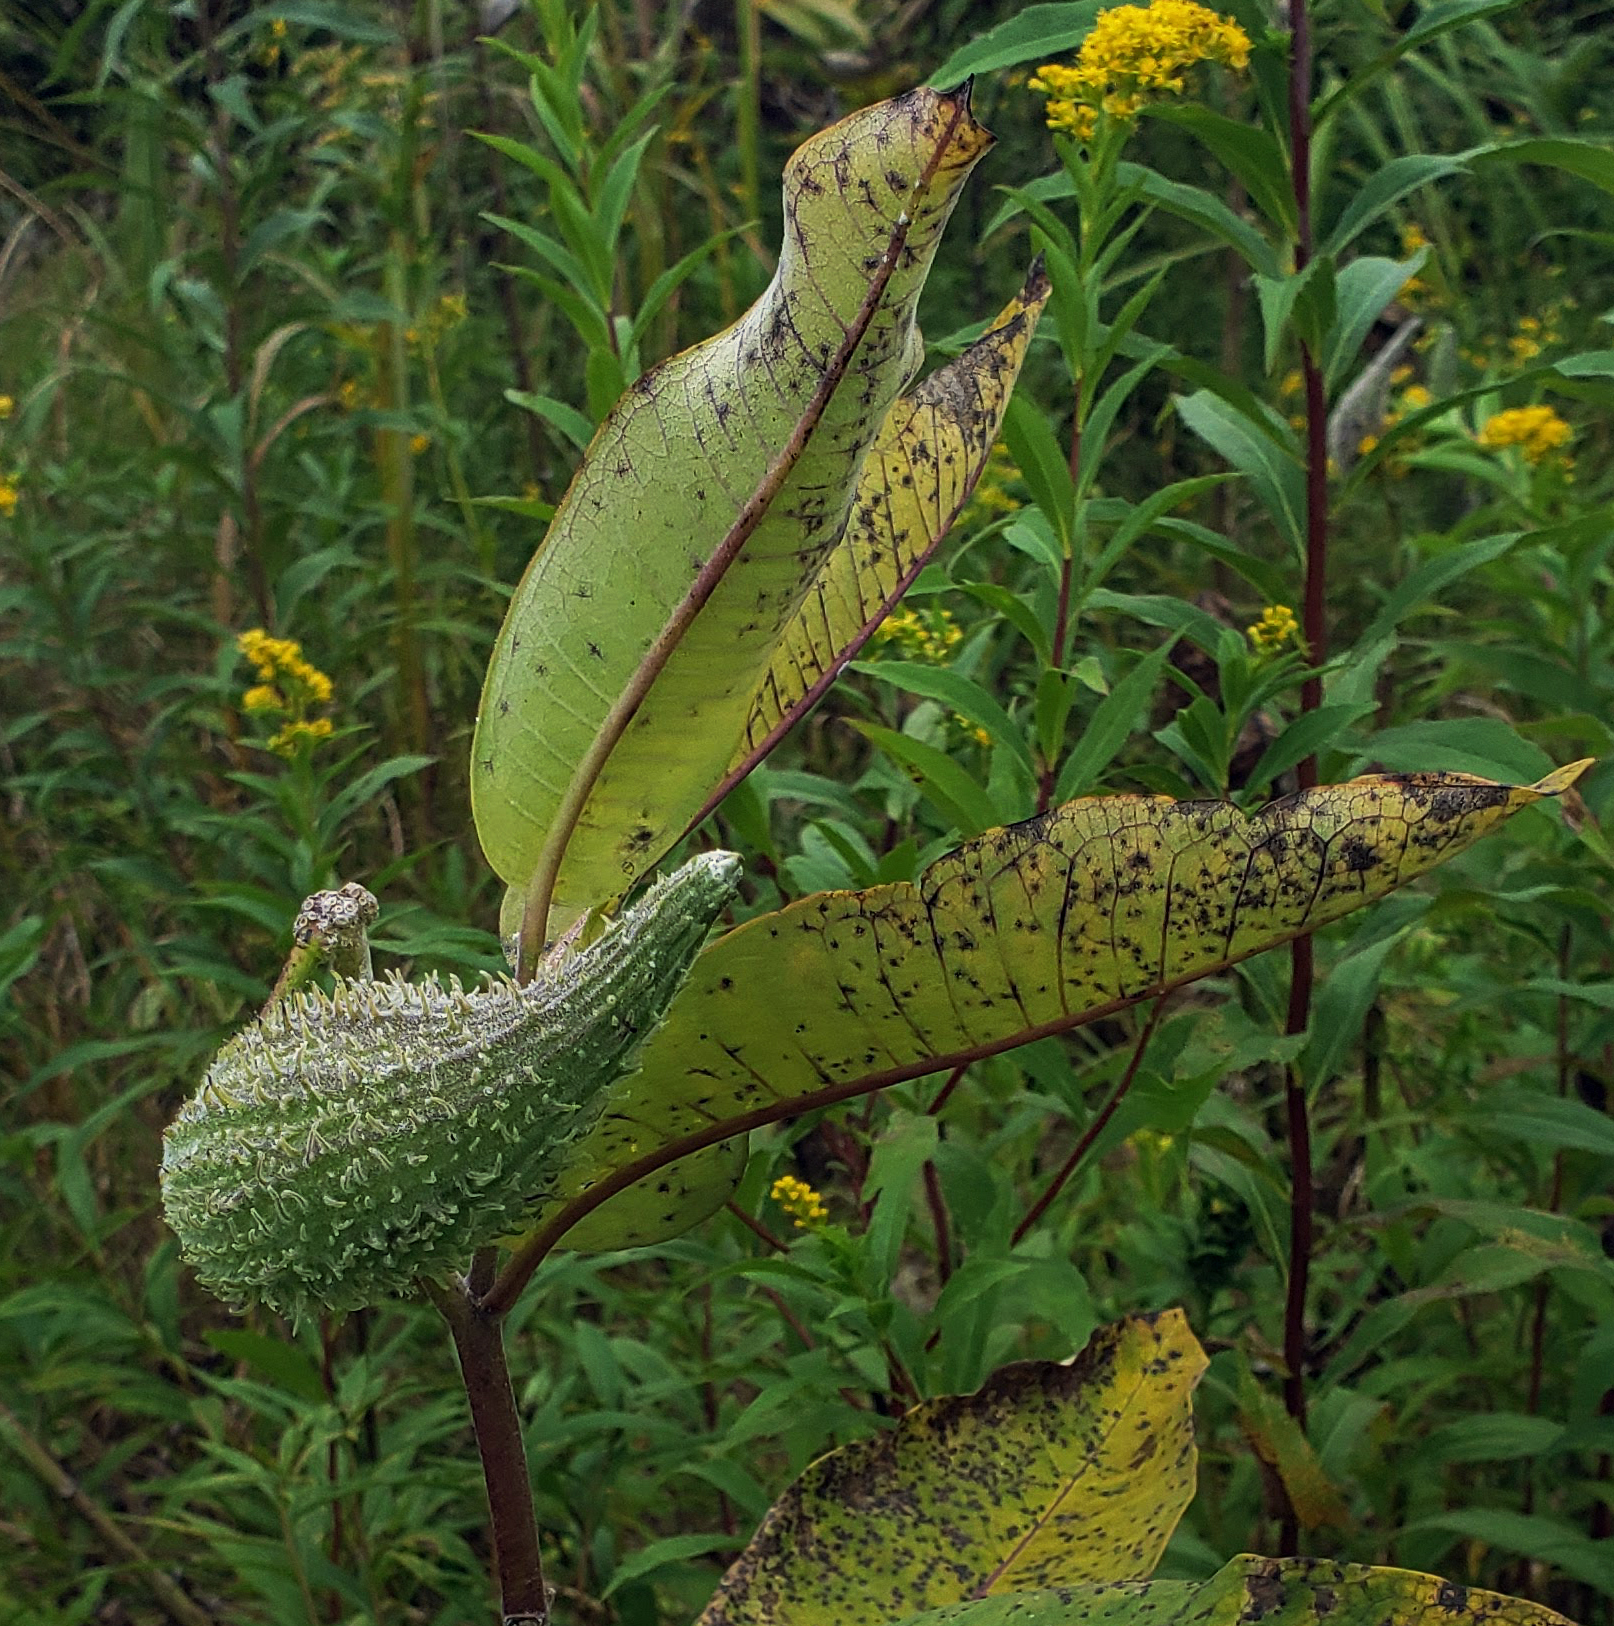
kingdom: Plantae
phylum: Tracheophyta
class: Magnoliopsida
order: Gentianales
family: Apocynaceae
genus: Asclepias
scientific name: Asclepias syriaca
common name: Common milkweed
